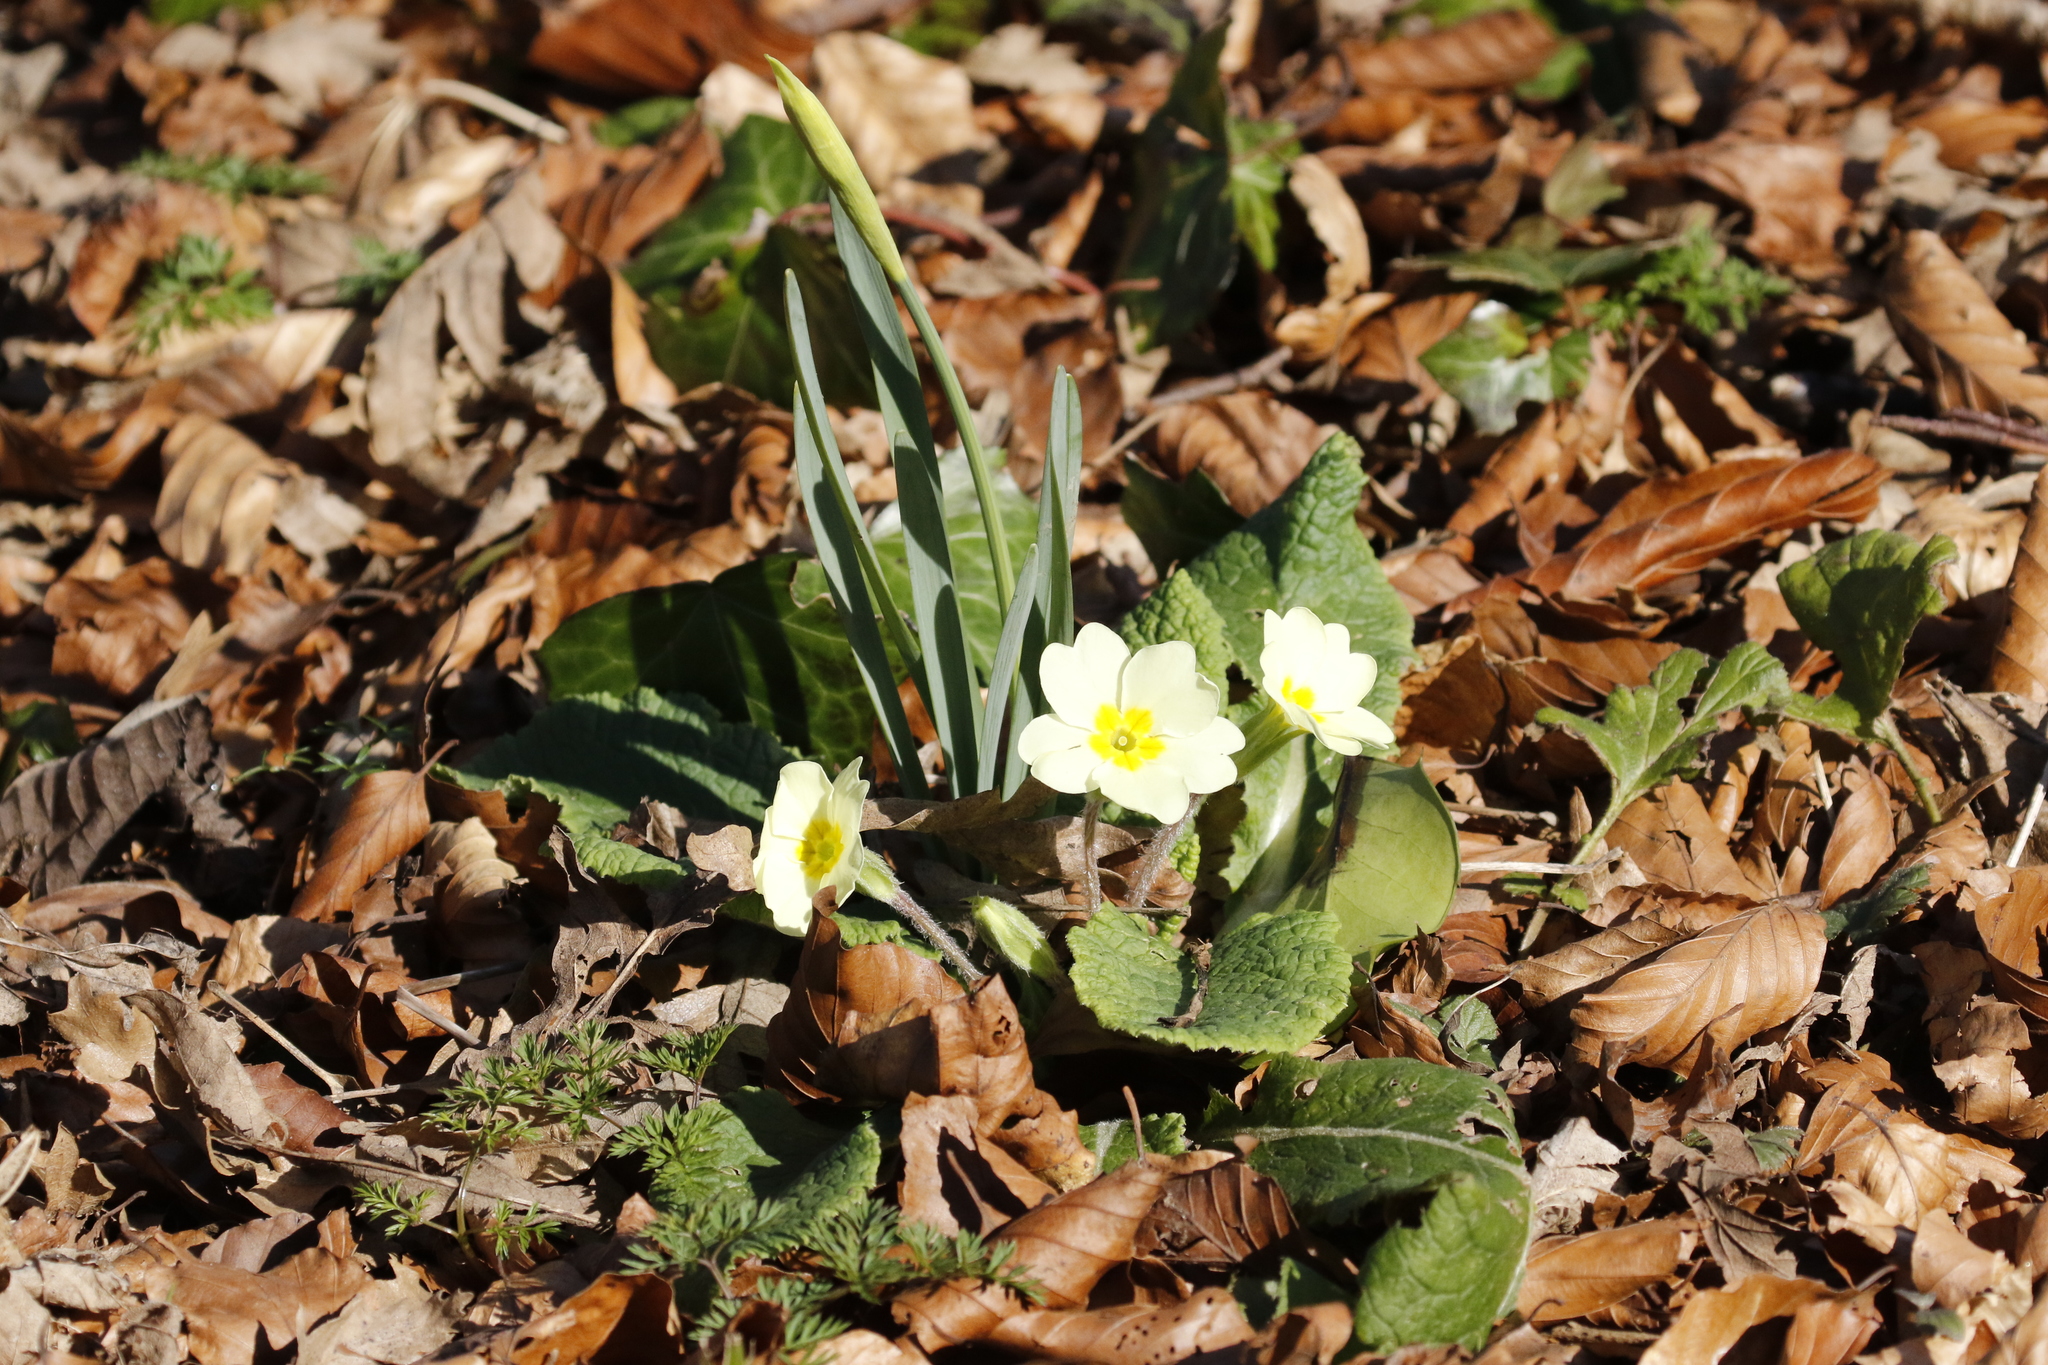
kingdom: Plantae
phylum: Tracheophyta
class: Magnoliopsida
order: Ericales
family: Primulaceae
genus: Primula
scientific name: Primula vulgaris
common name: Primrose
